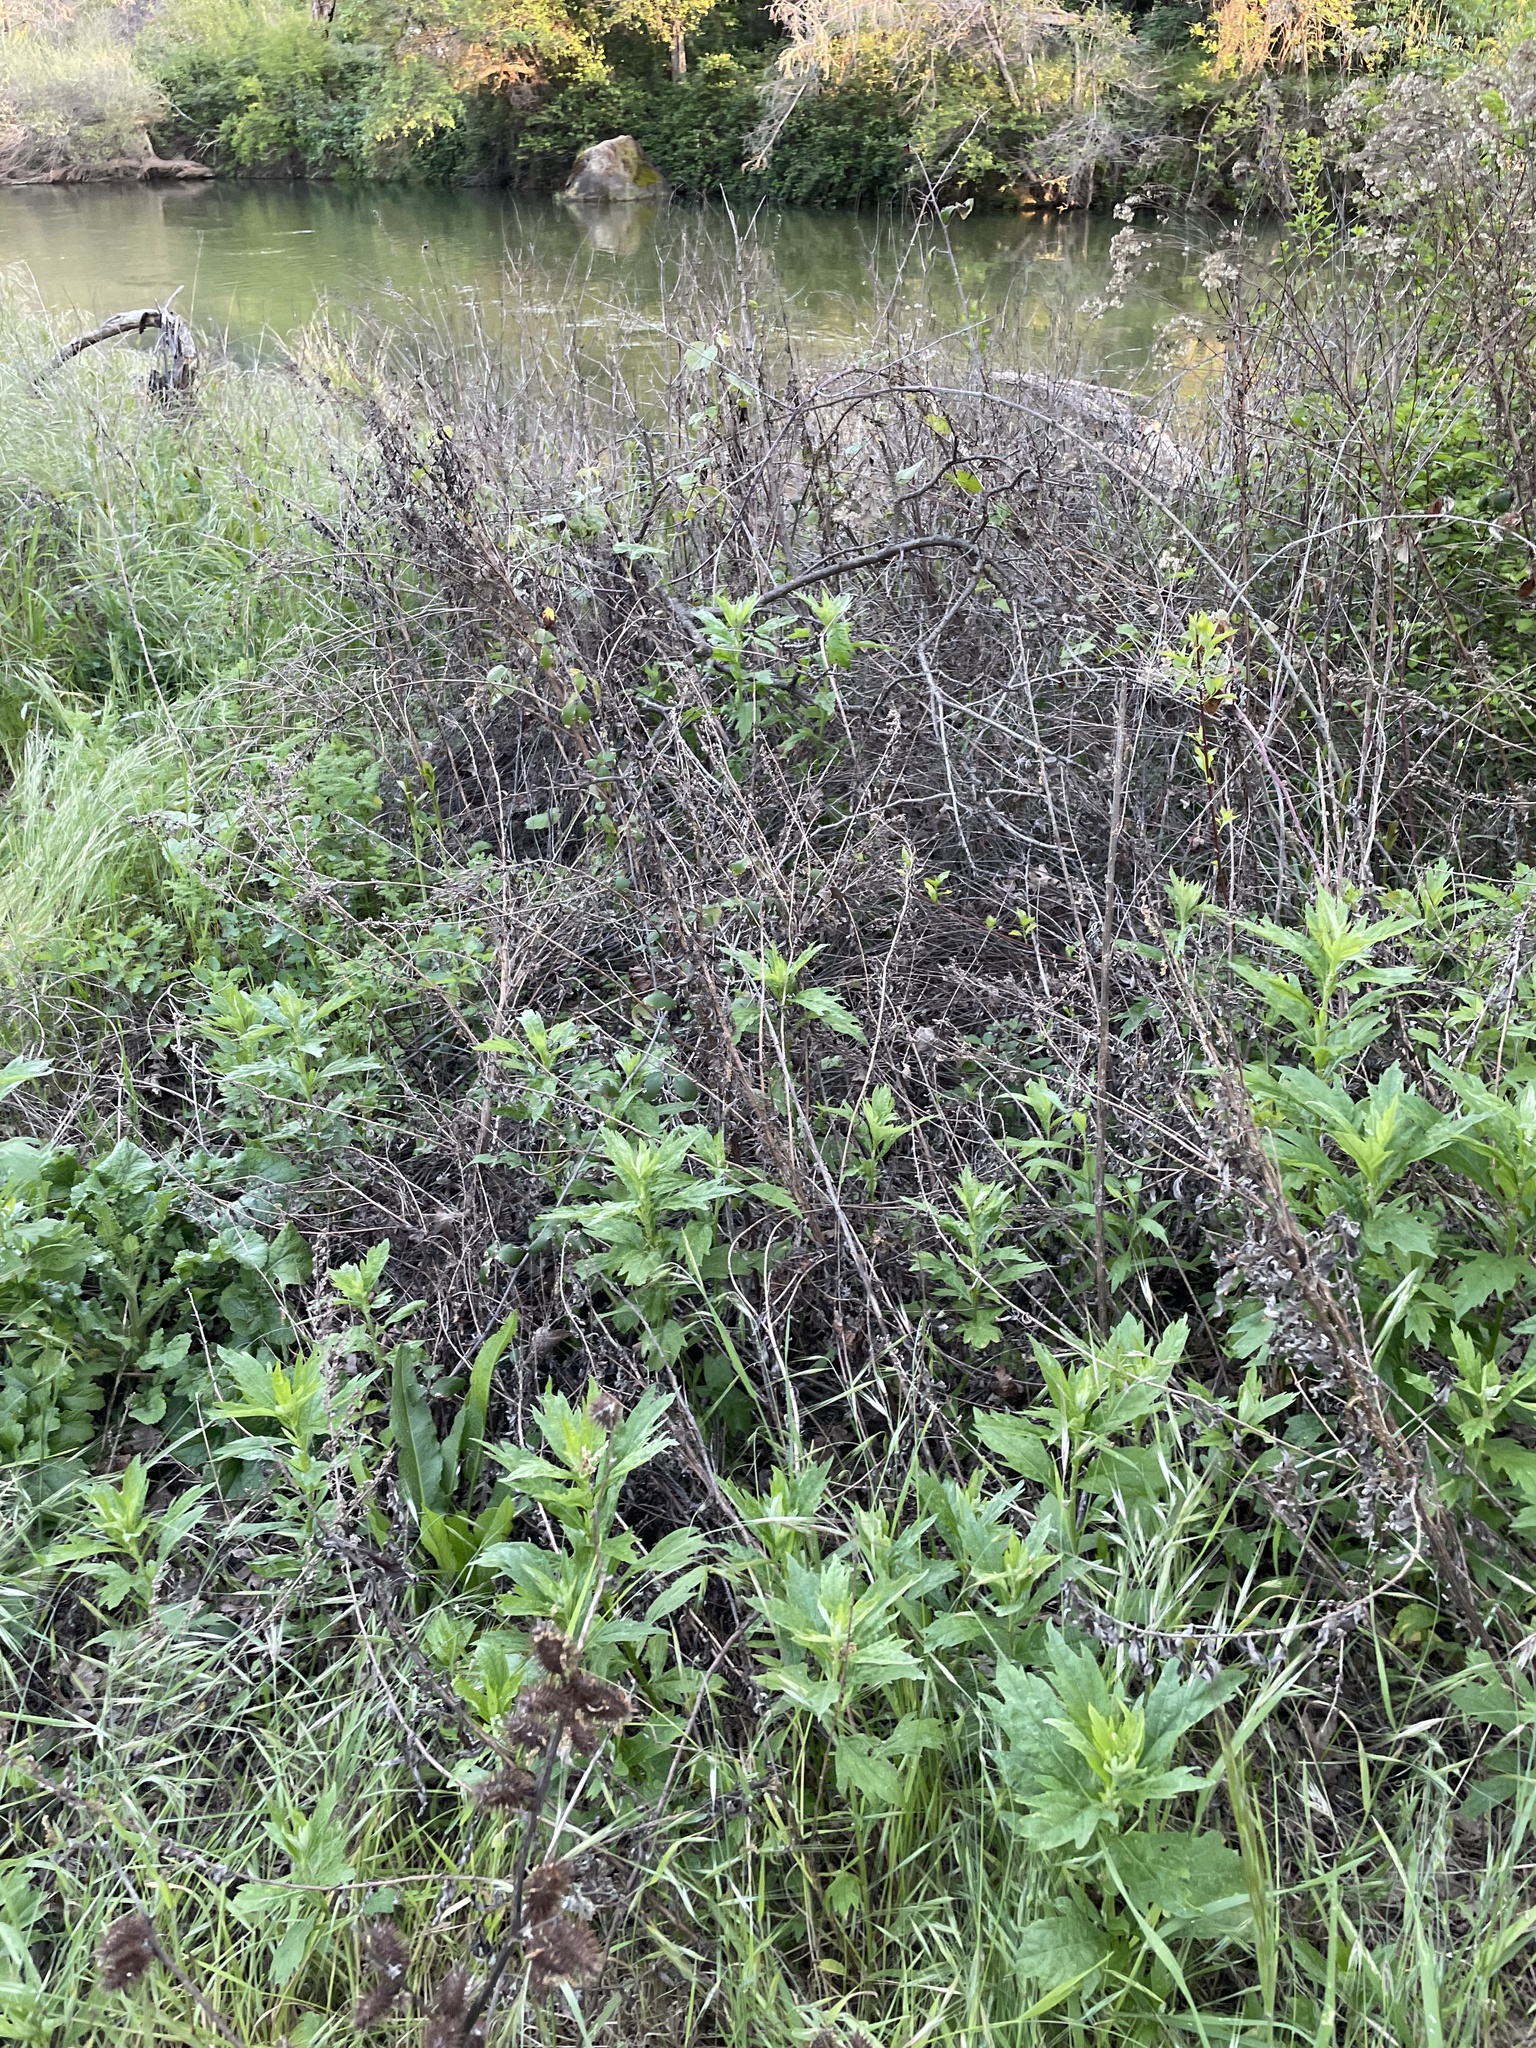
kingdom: Plantae
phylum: Tracheophyta
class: Magnoliopsida
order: Asterales
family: Asteraceae
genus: Artemisia
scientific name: Artemisia douglasiana
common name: Northwest mugwort
